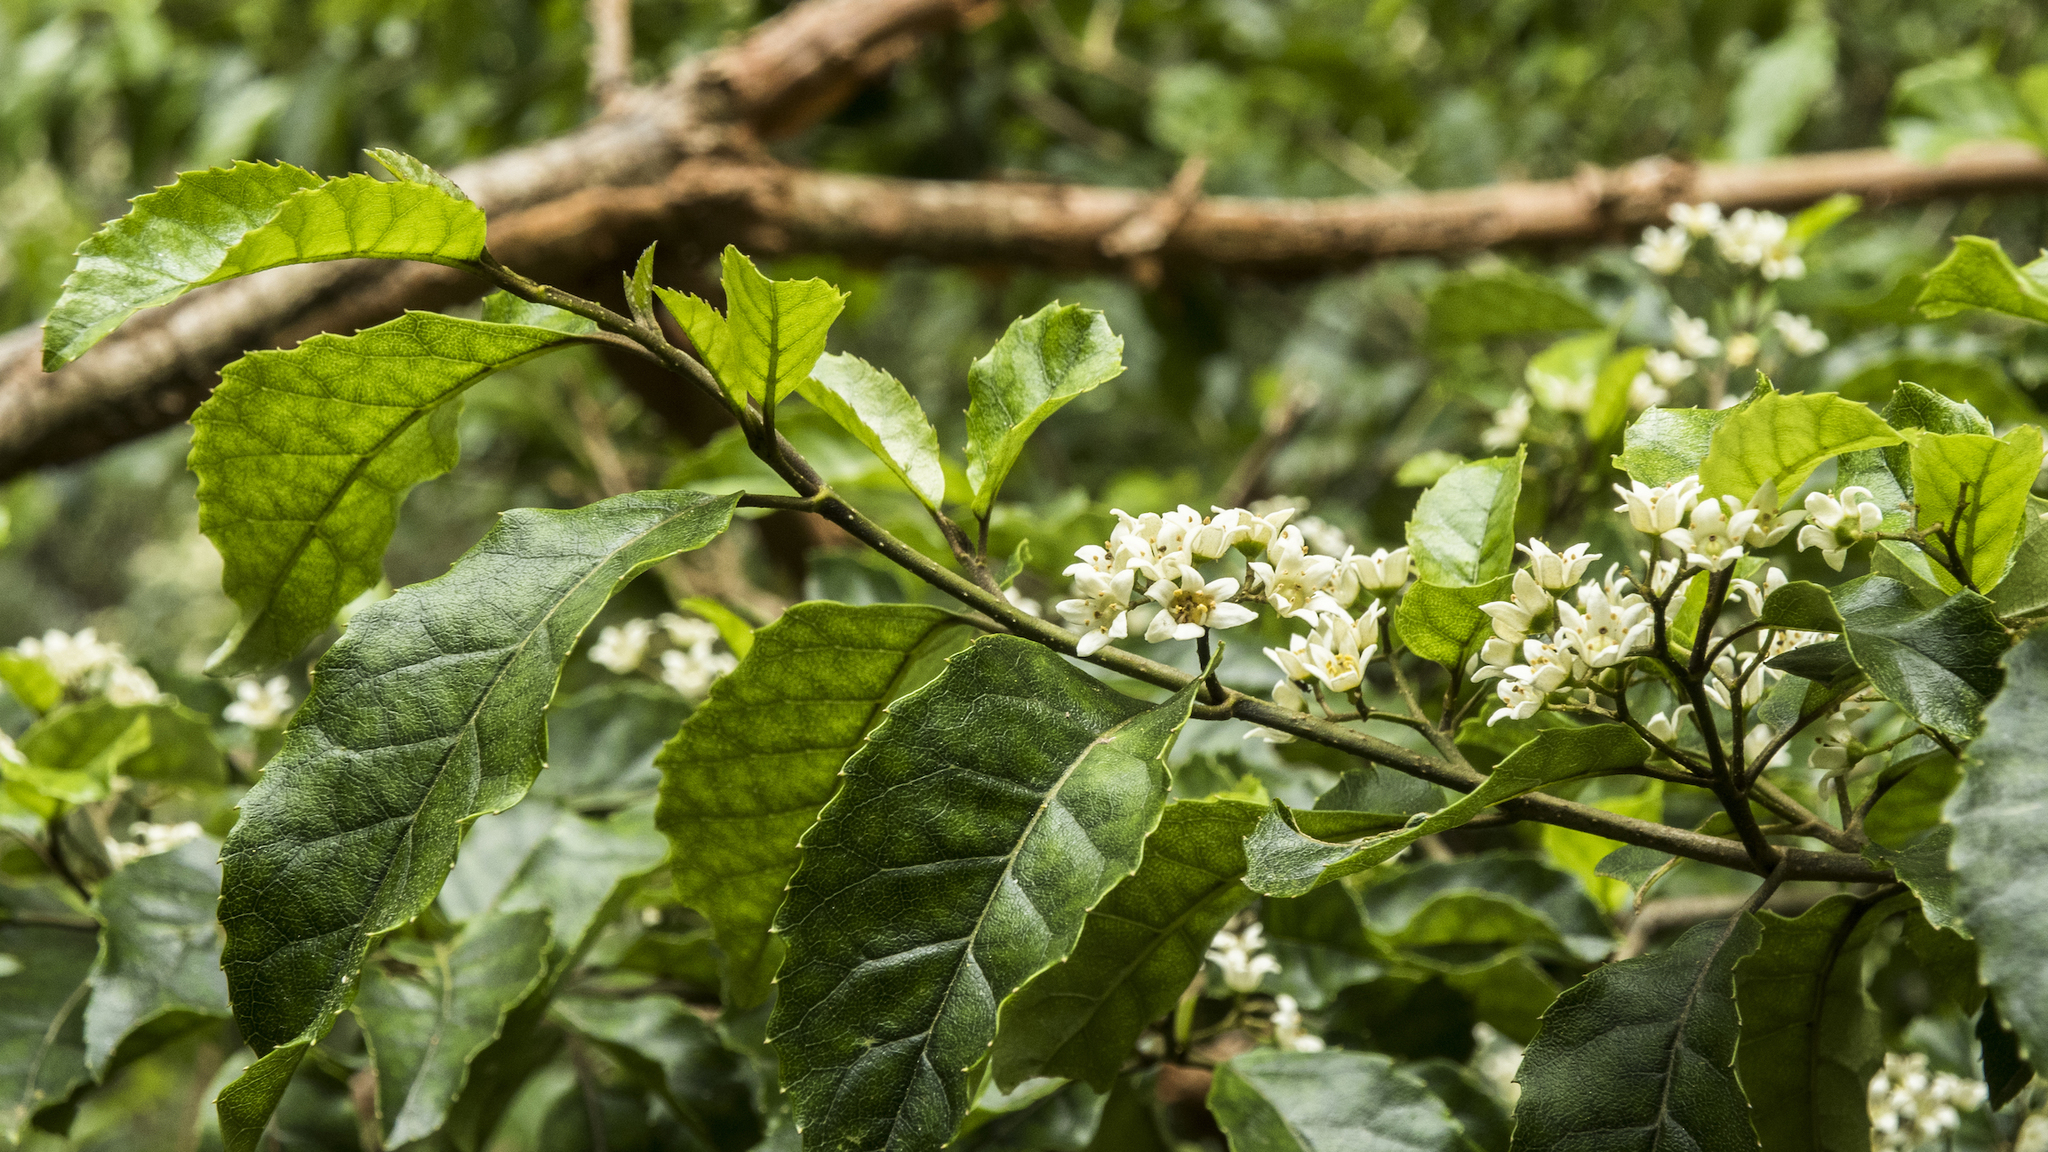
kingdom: Plantae
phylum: Tracheophyta
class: Magnoliopsida
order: Asterales
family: Rousseaceae
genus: Carpodetus
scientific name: Carpodetus serratus
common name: White mapau
